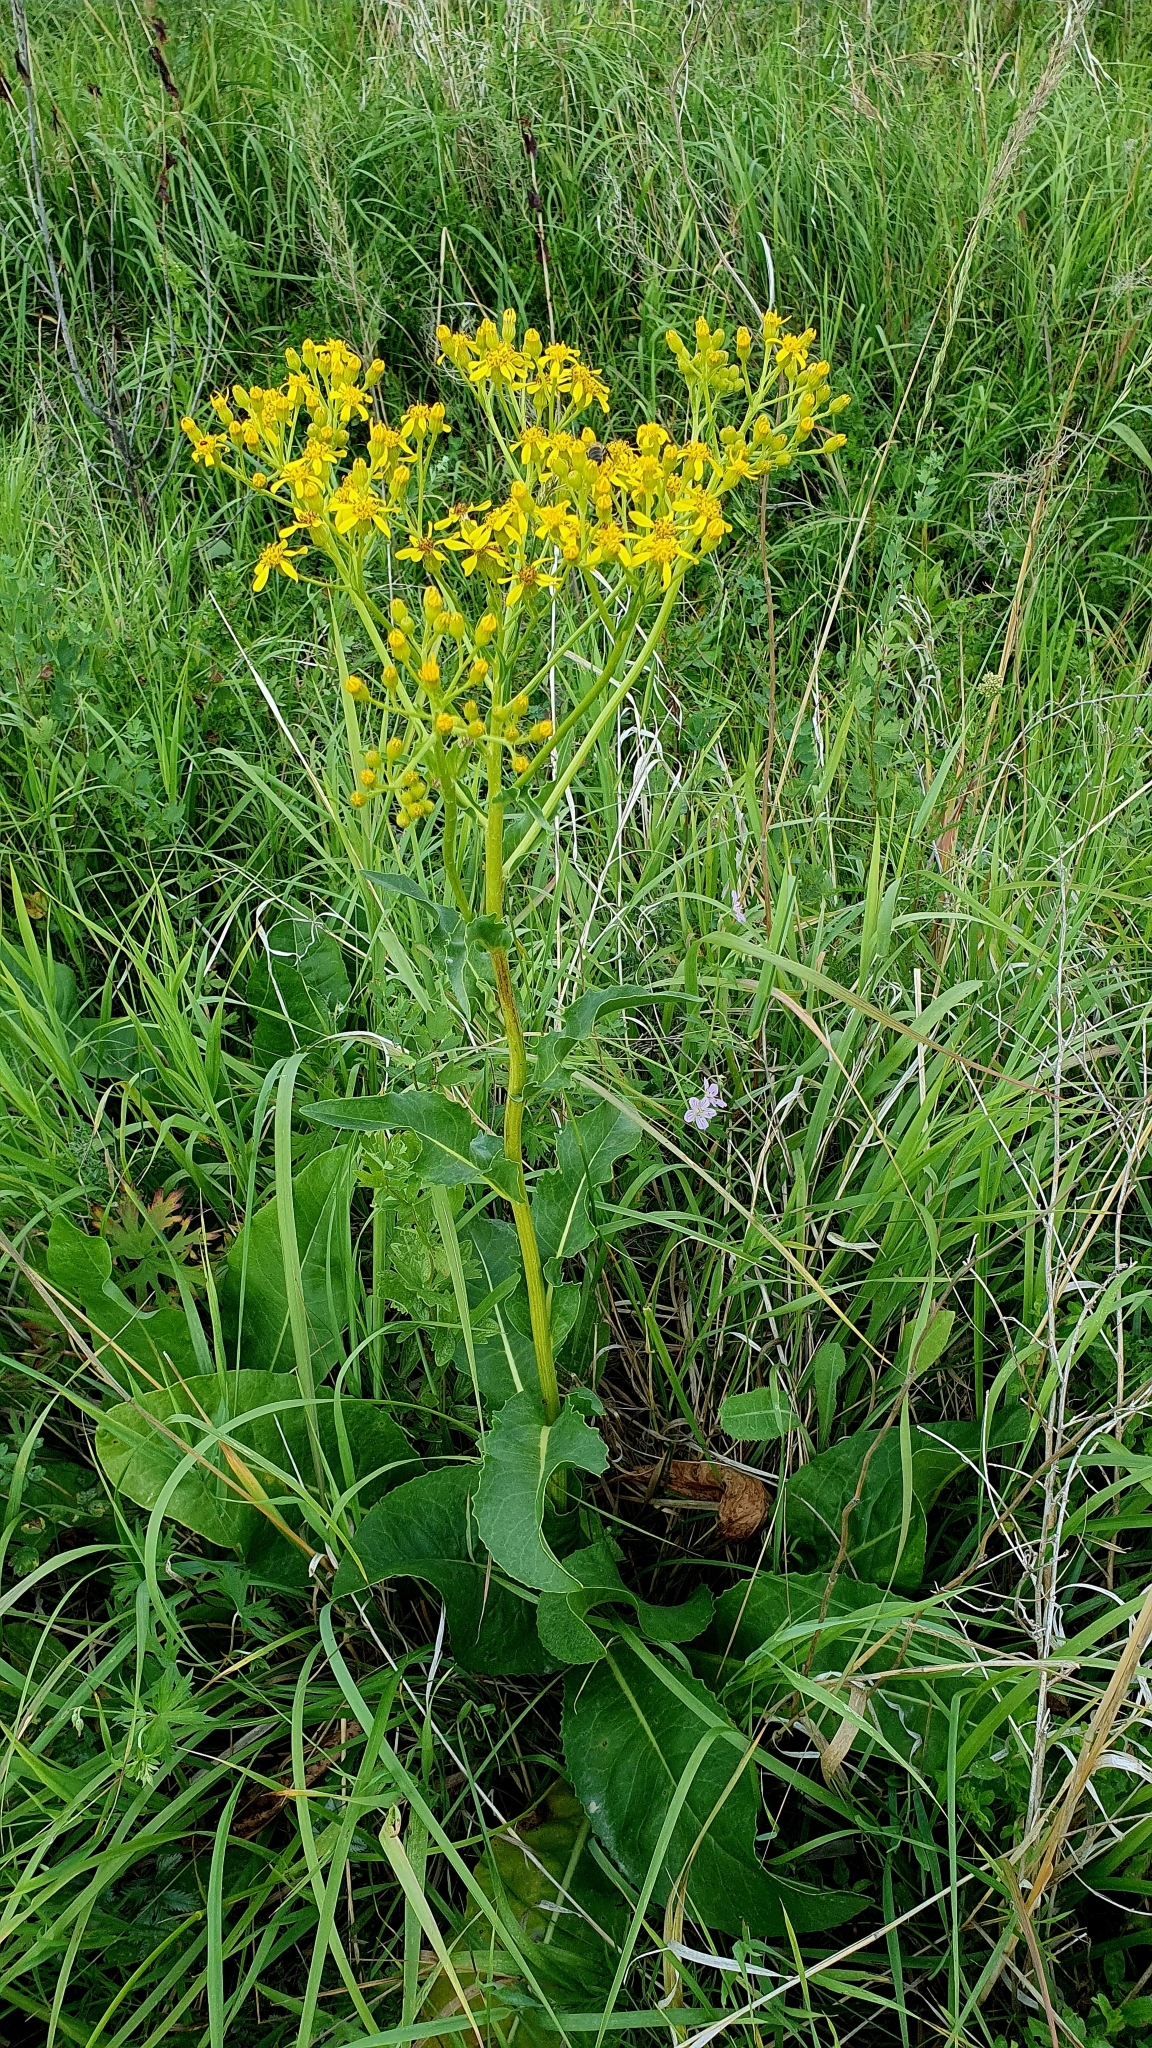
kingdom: Plantae
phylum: Tracheophyta
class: Magnoliopsida
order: Asterales
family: Asteraceae
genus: Senecio
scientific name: Senecio doria
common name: Golden ragwort
